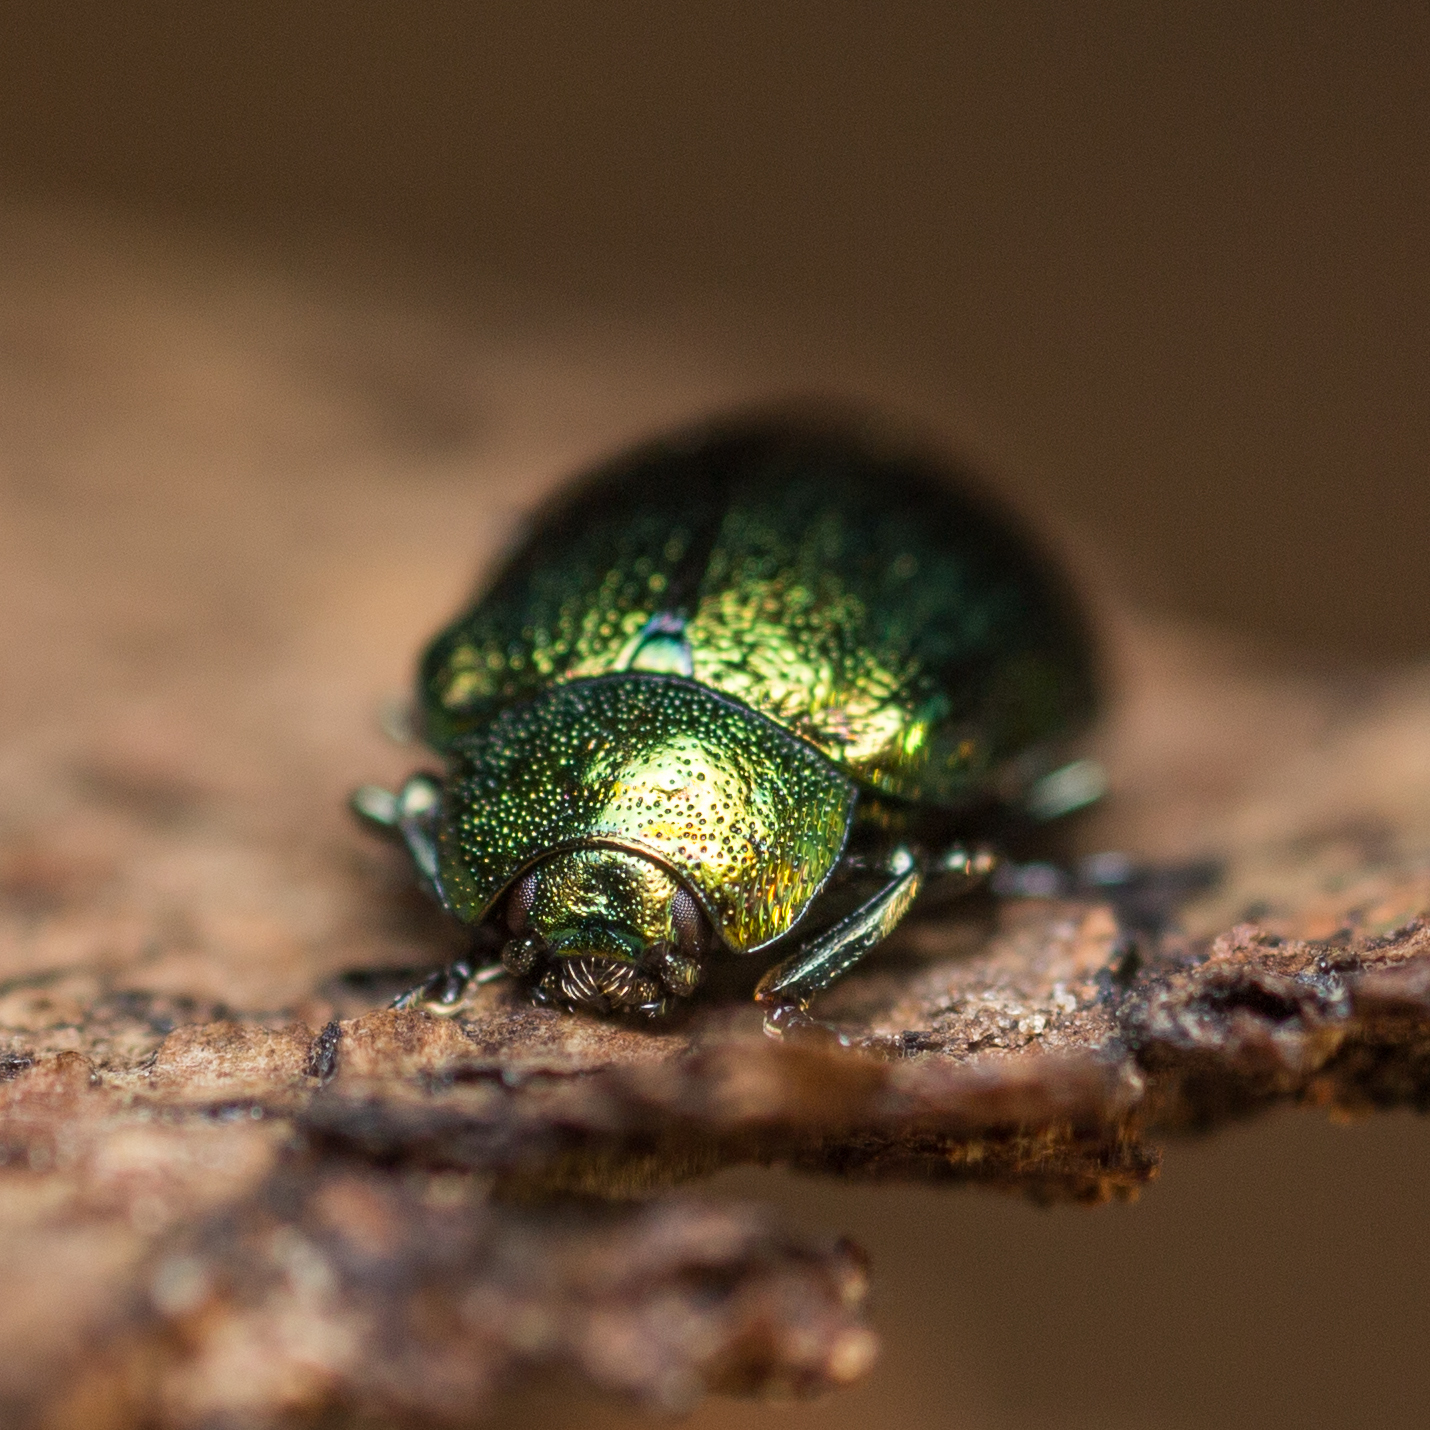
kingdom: Animalia
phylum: Arthropoda
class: Insecta
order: Coleoptera
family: Chrysomelidae
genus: Plagiosterna
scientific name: Plagiosterna aenea
